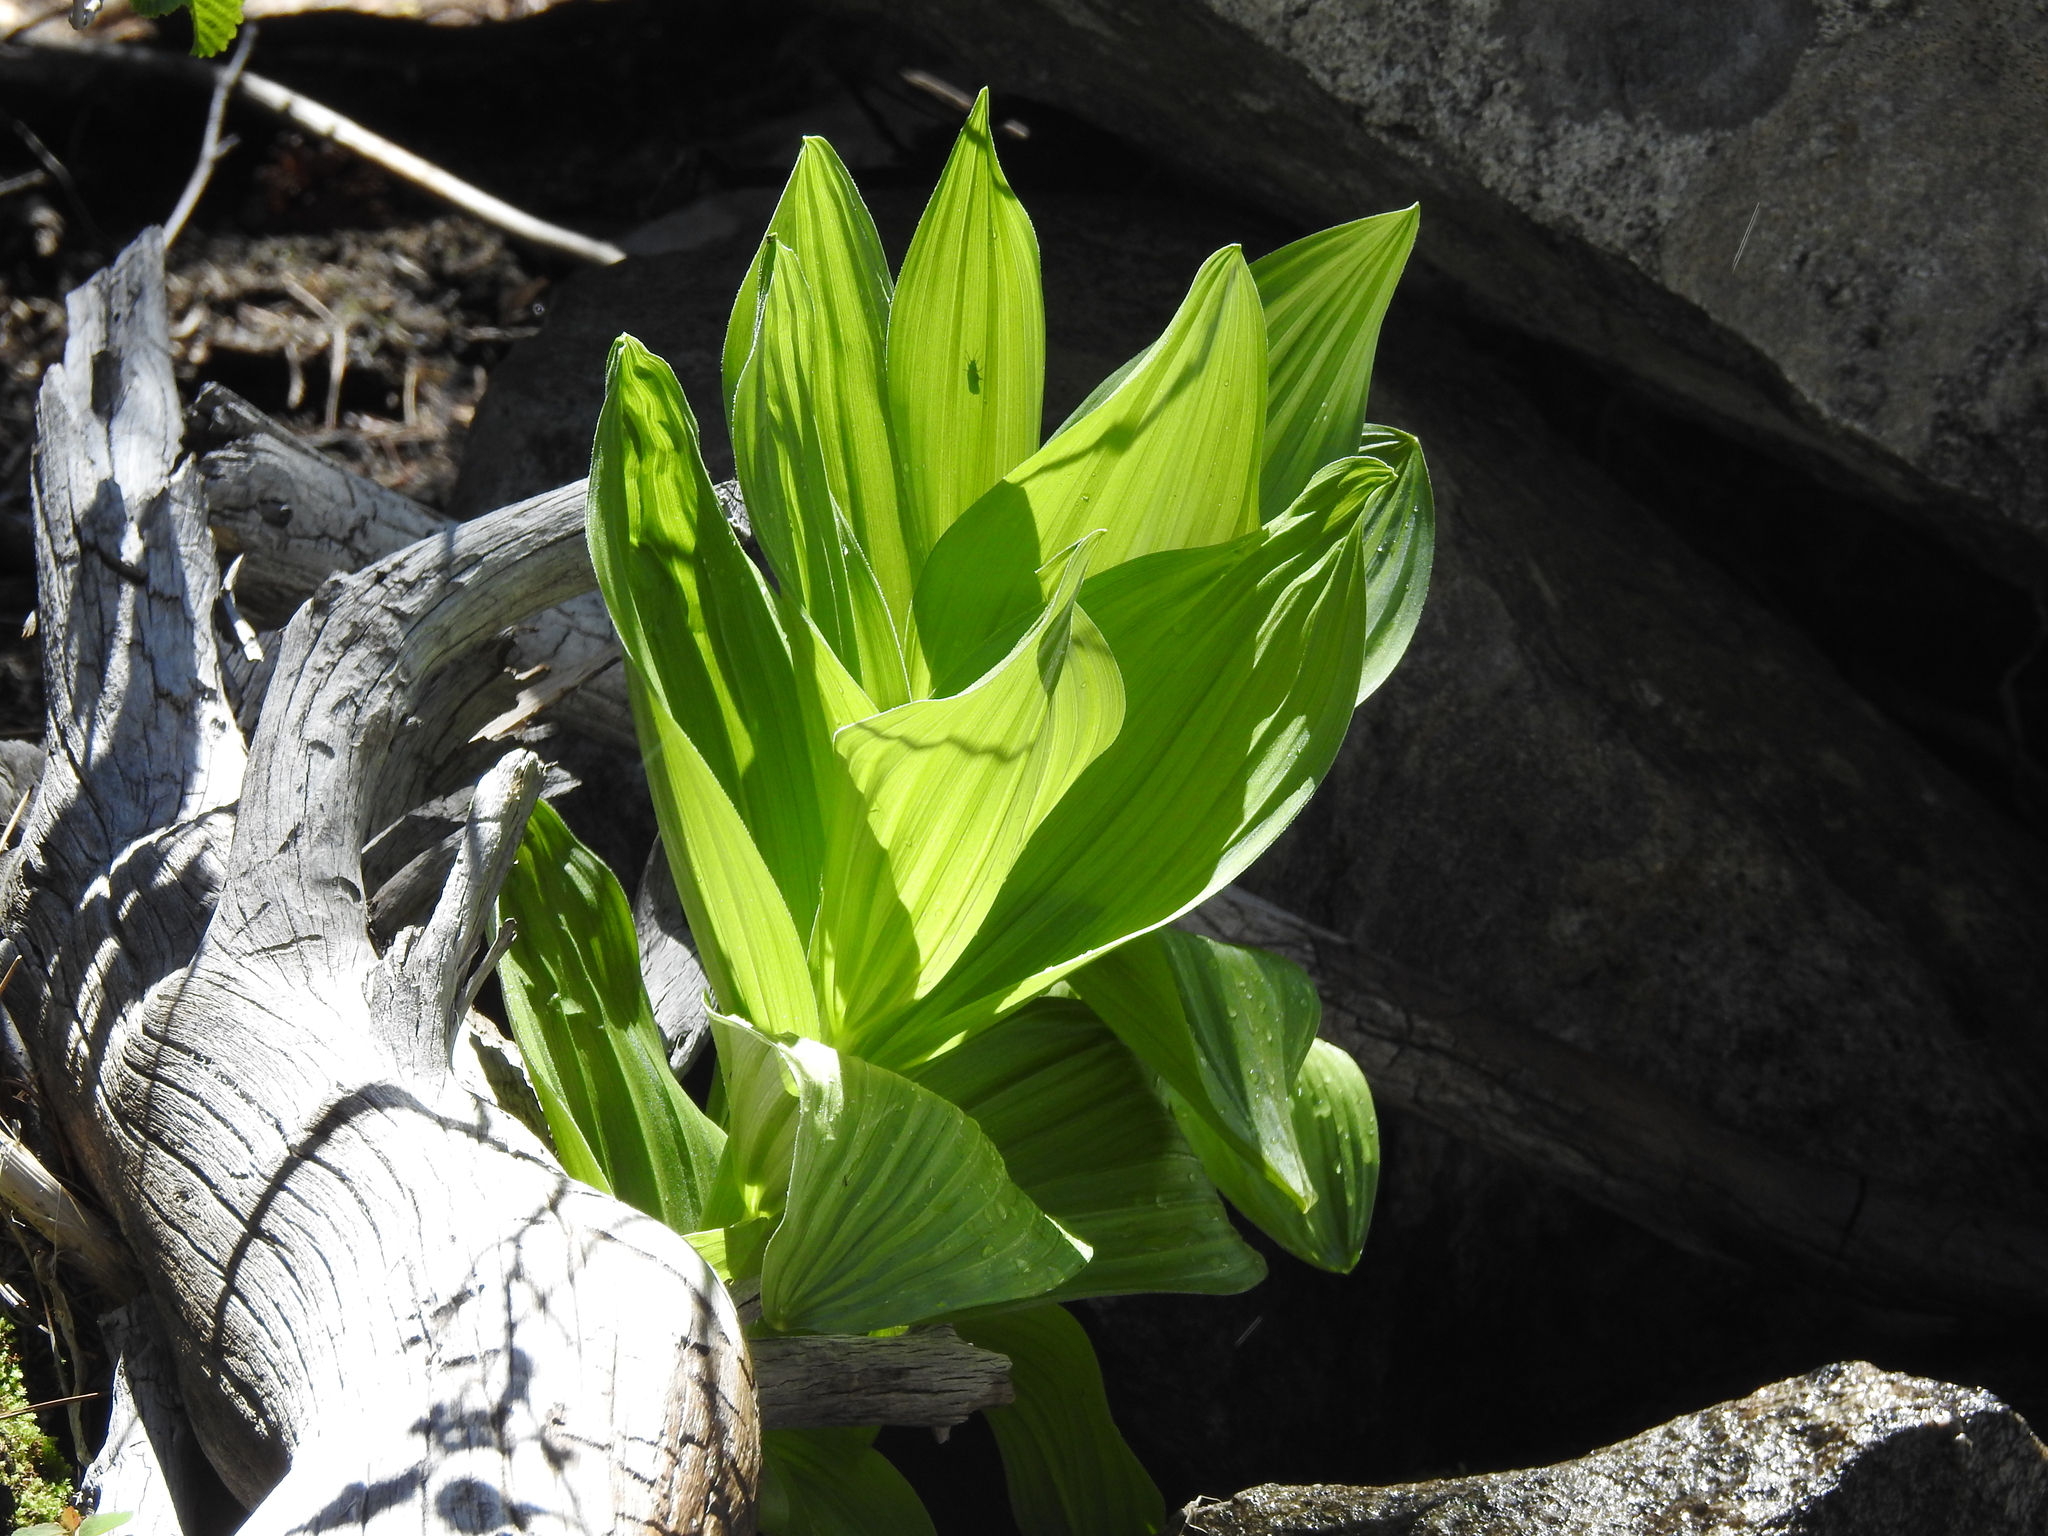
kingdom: Plantae
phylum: Tracheophyta
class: Liliopsida
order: Liliales
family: Melanthiaceae
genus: Veratrum
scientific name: Veratrum californicum
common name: California veratrum
